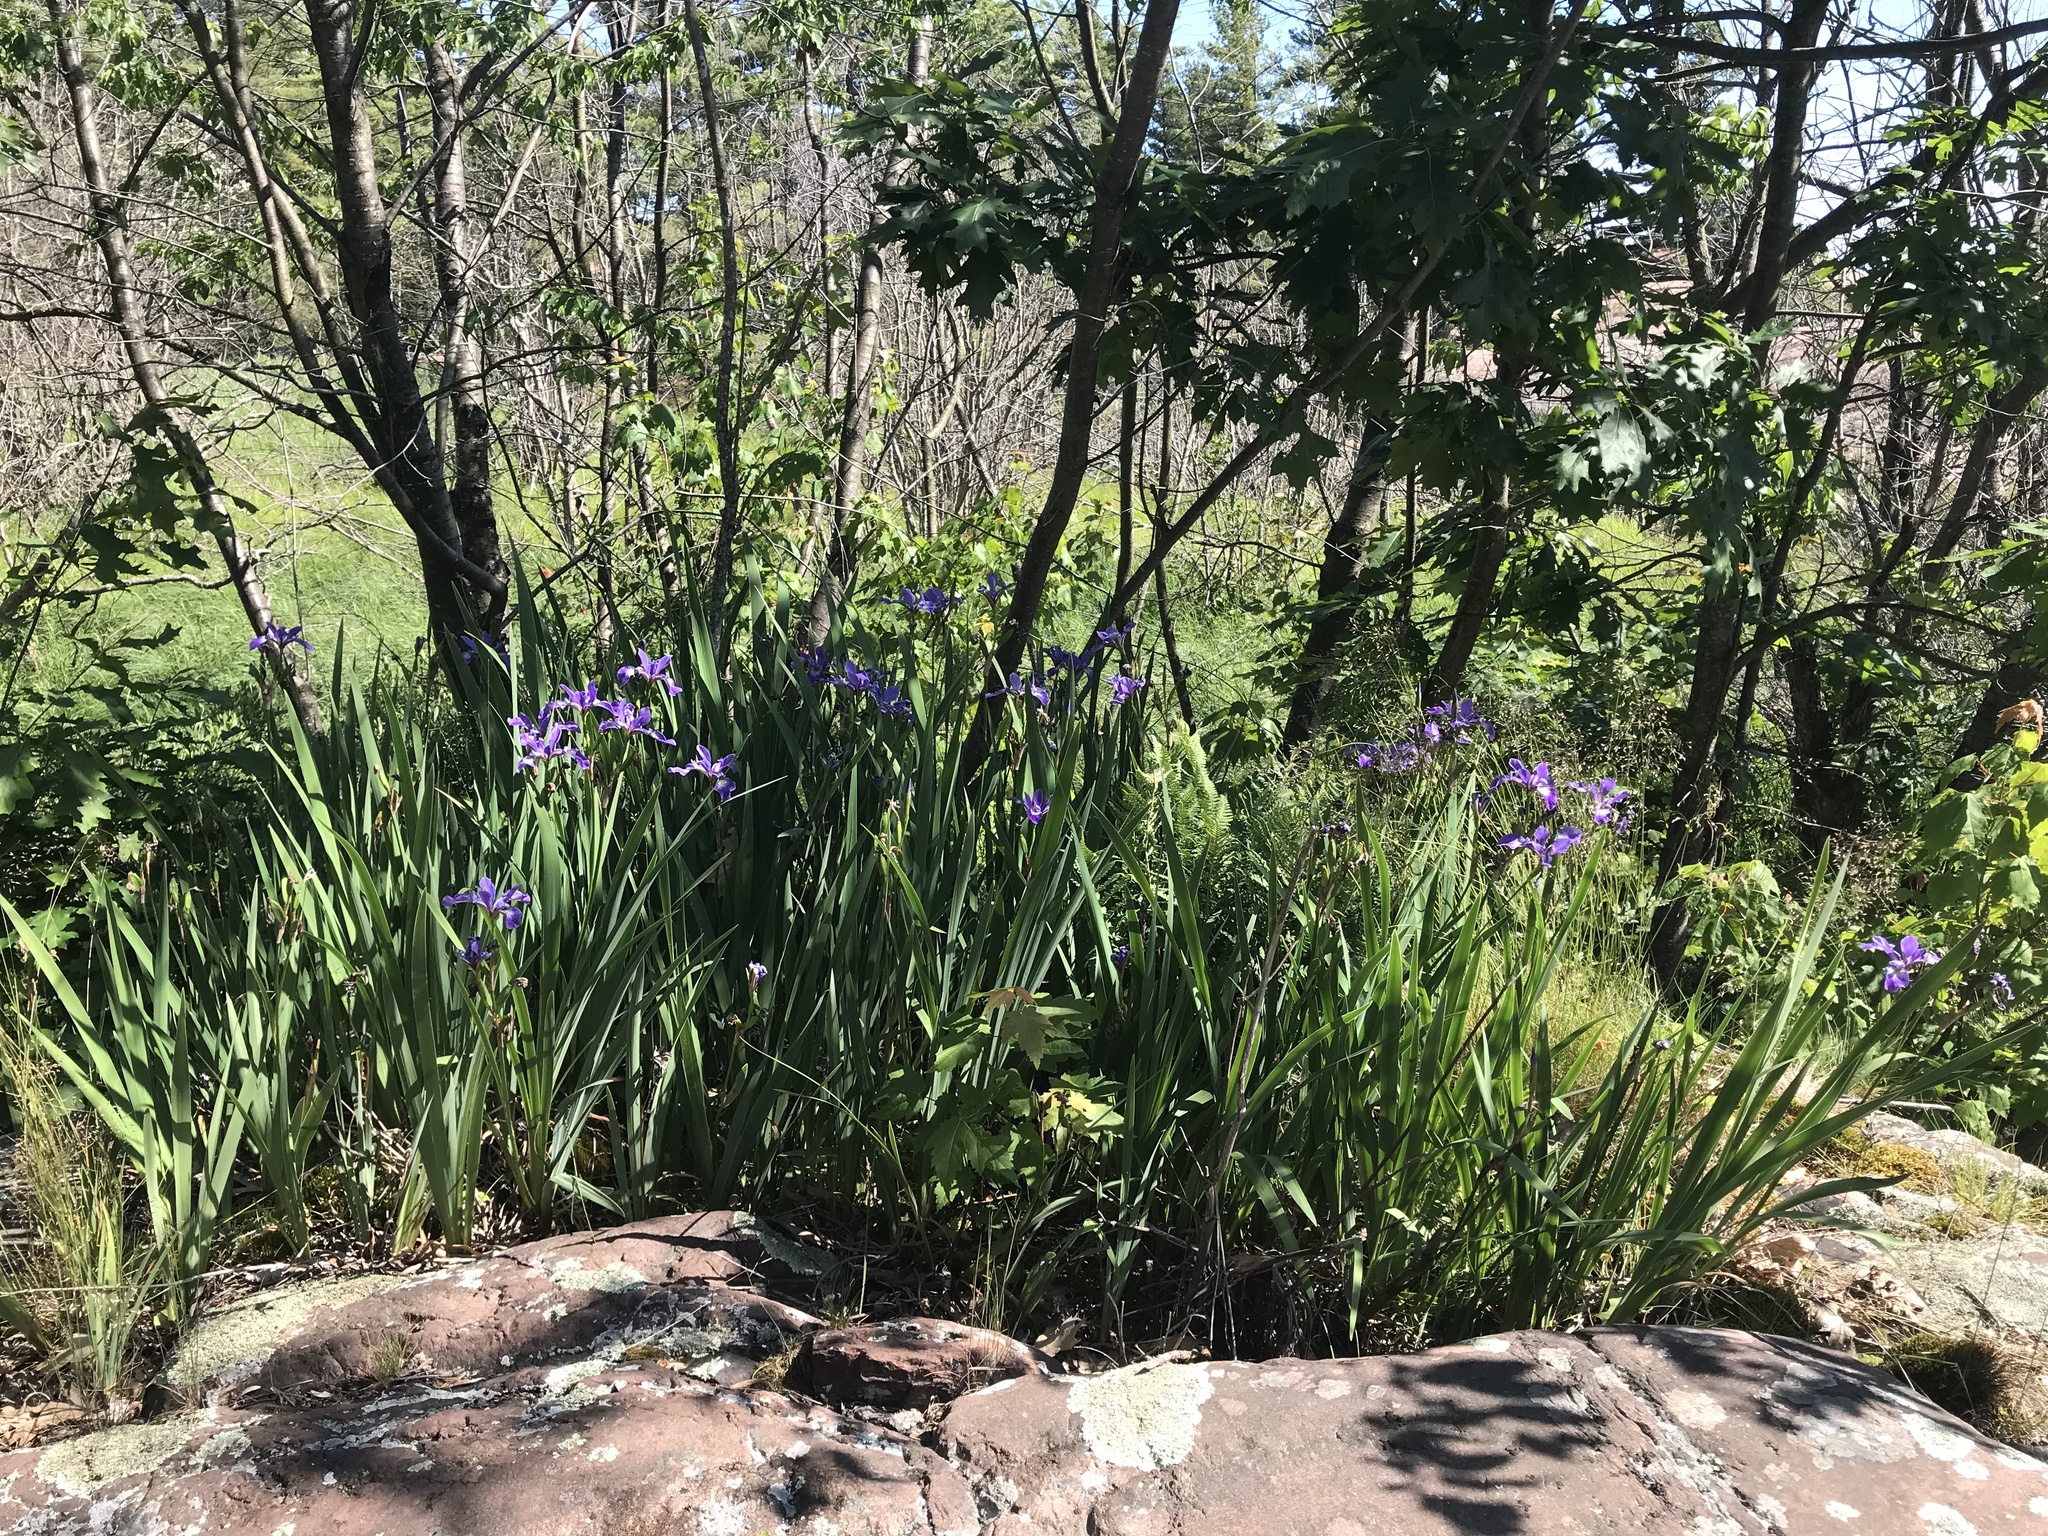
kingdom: Plantae
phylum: Tracheophyta
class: Liliopsida
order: Asparagales
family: Iridaceae
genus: Iris
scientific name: Iris versicolor
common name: Purple iris
